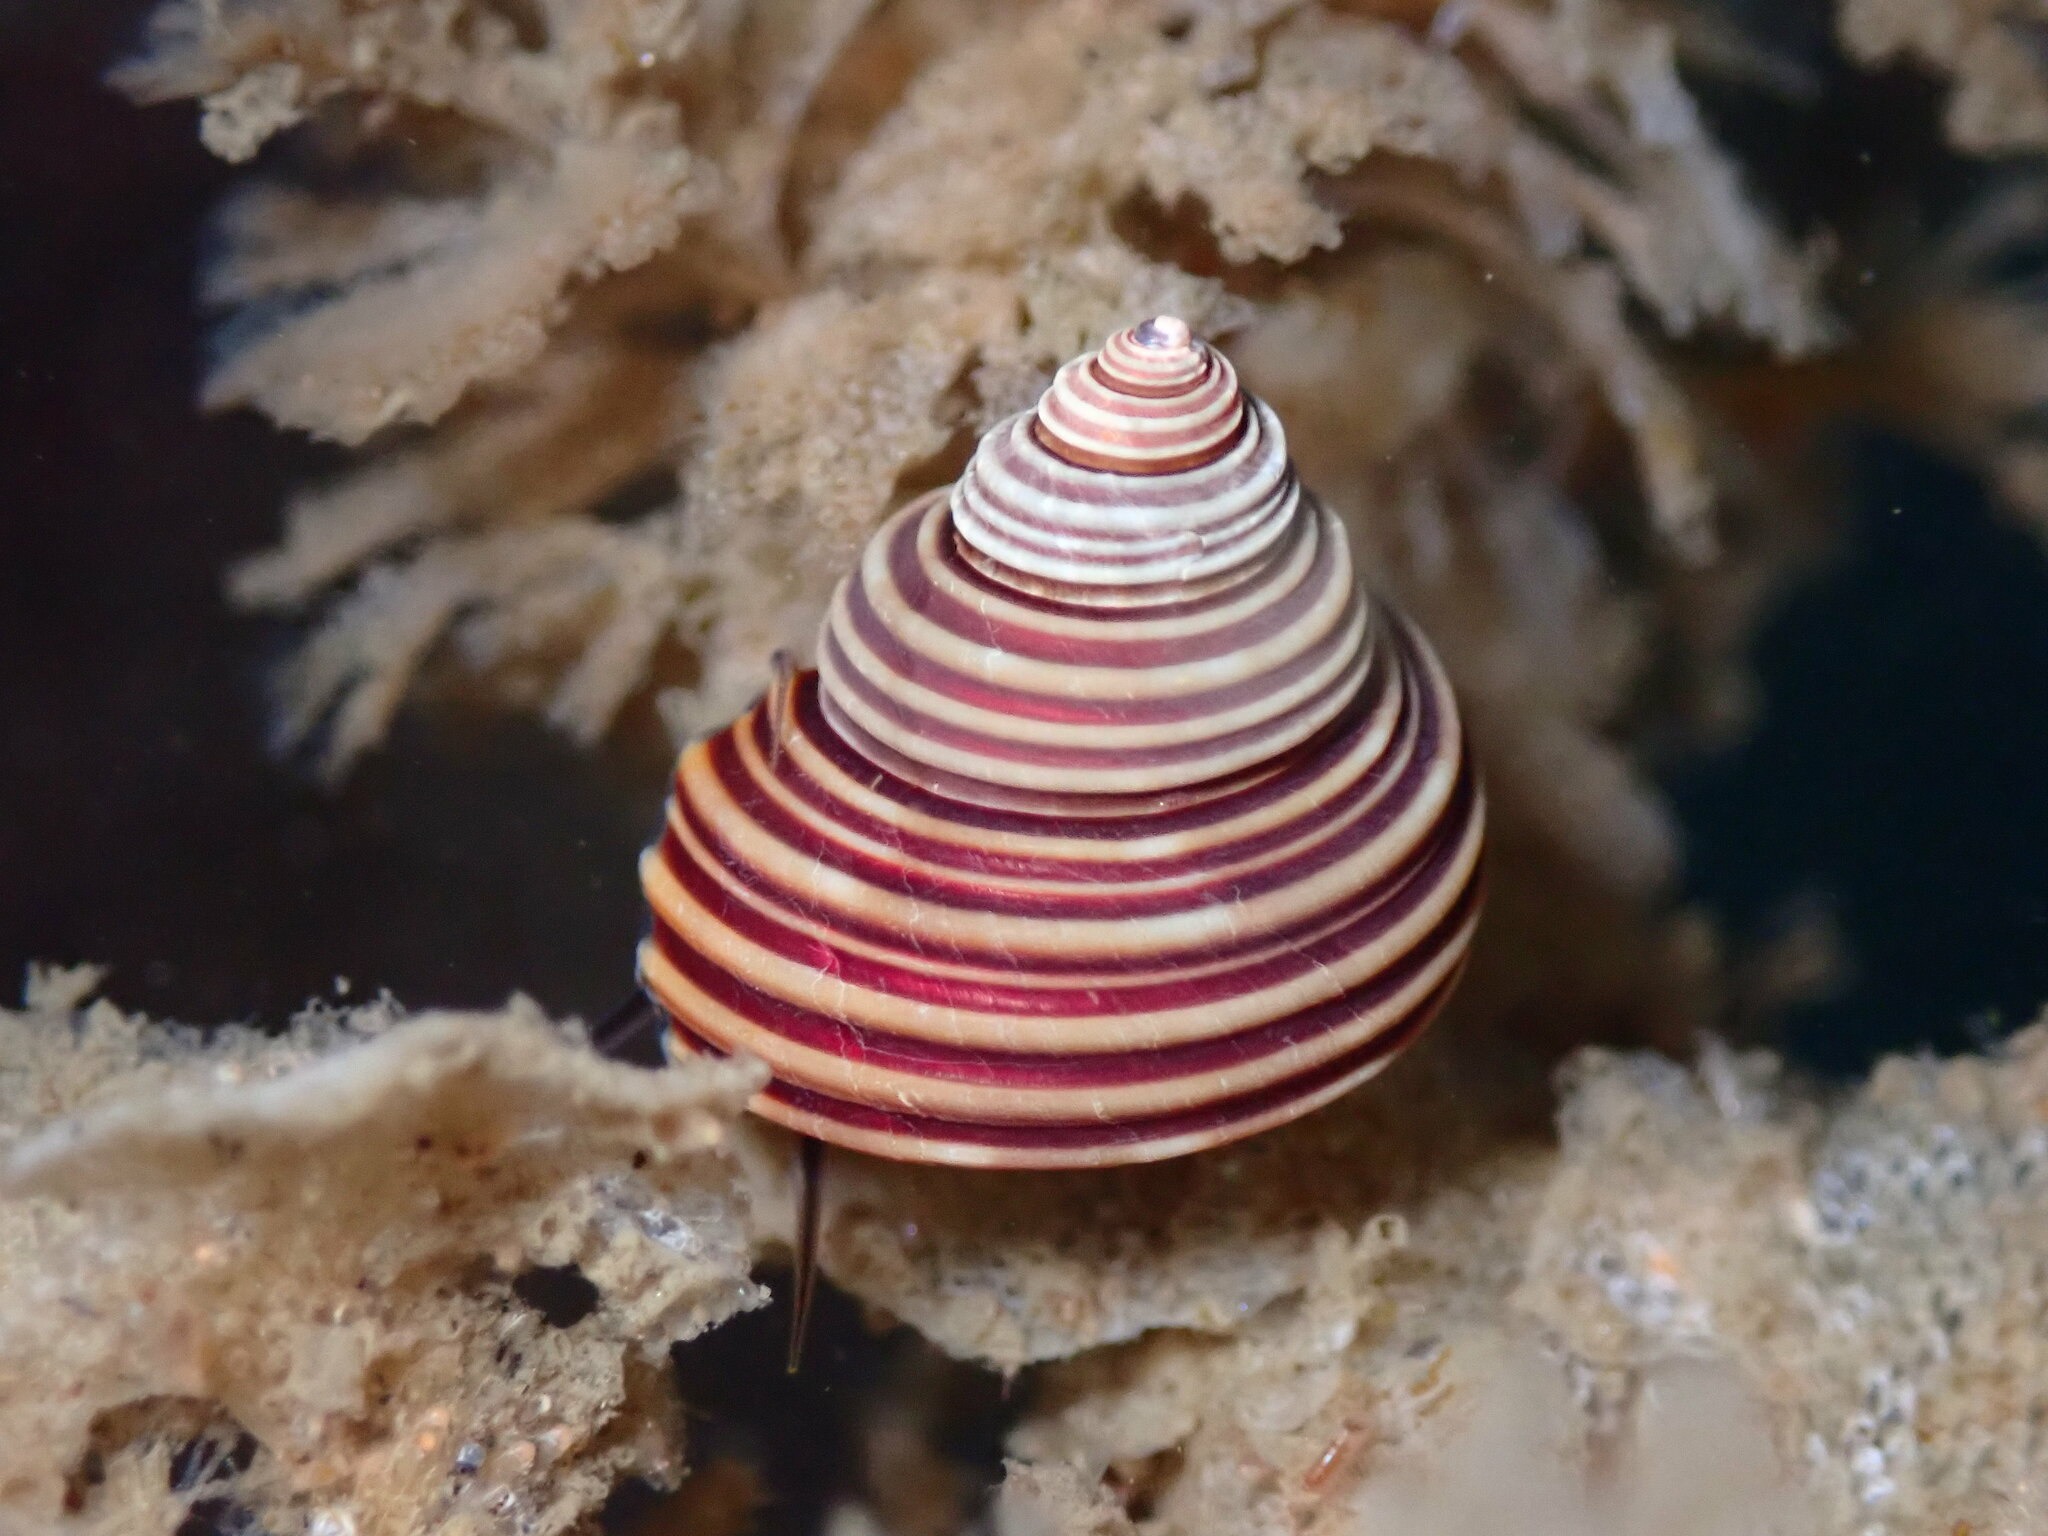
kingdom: Animalia
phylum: Mollusca
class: Gastropoda
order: Trochida
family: Calliostomatidae
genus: Calliostoma
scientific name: Calliostoma ligatum
